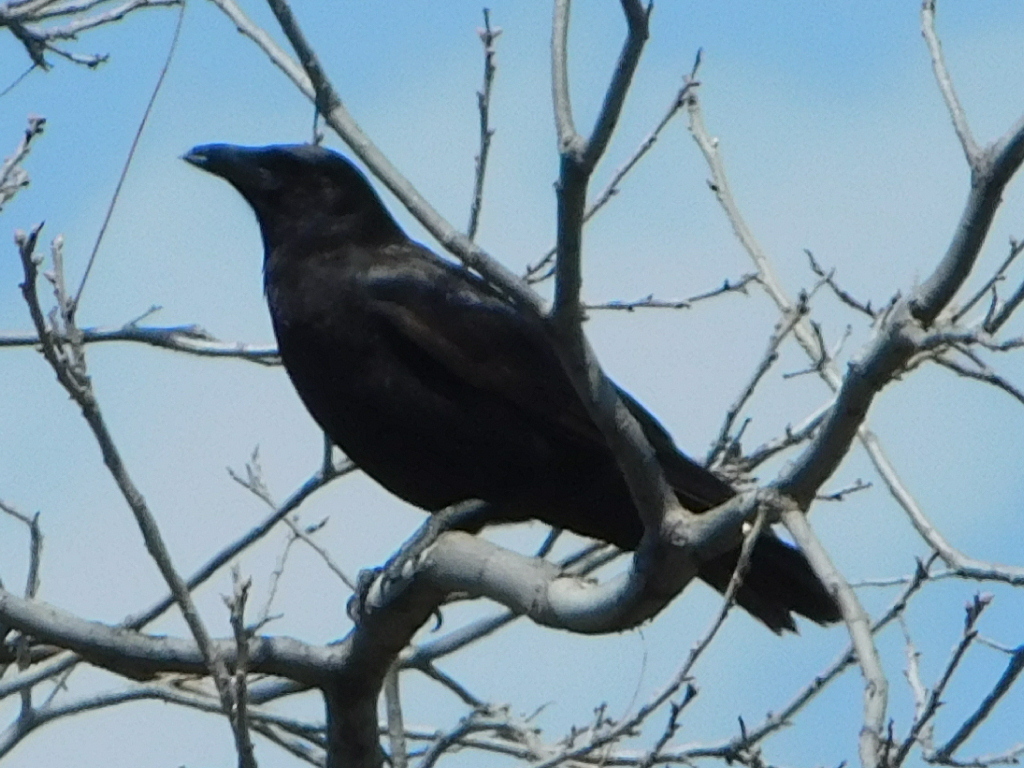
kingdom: Animalia
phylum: Chordata
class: Aves
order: Passeriformes
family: Corvidae
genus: Corvus
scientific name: Corvus brachyrhynchos
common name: American crow
